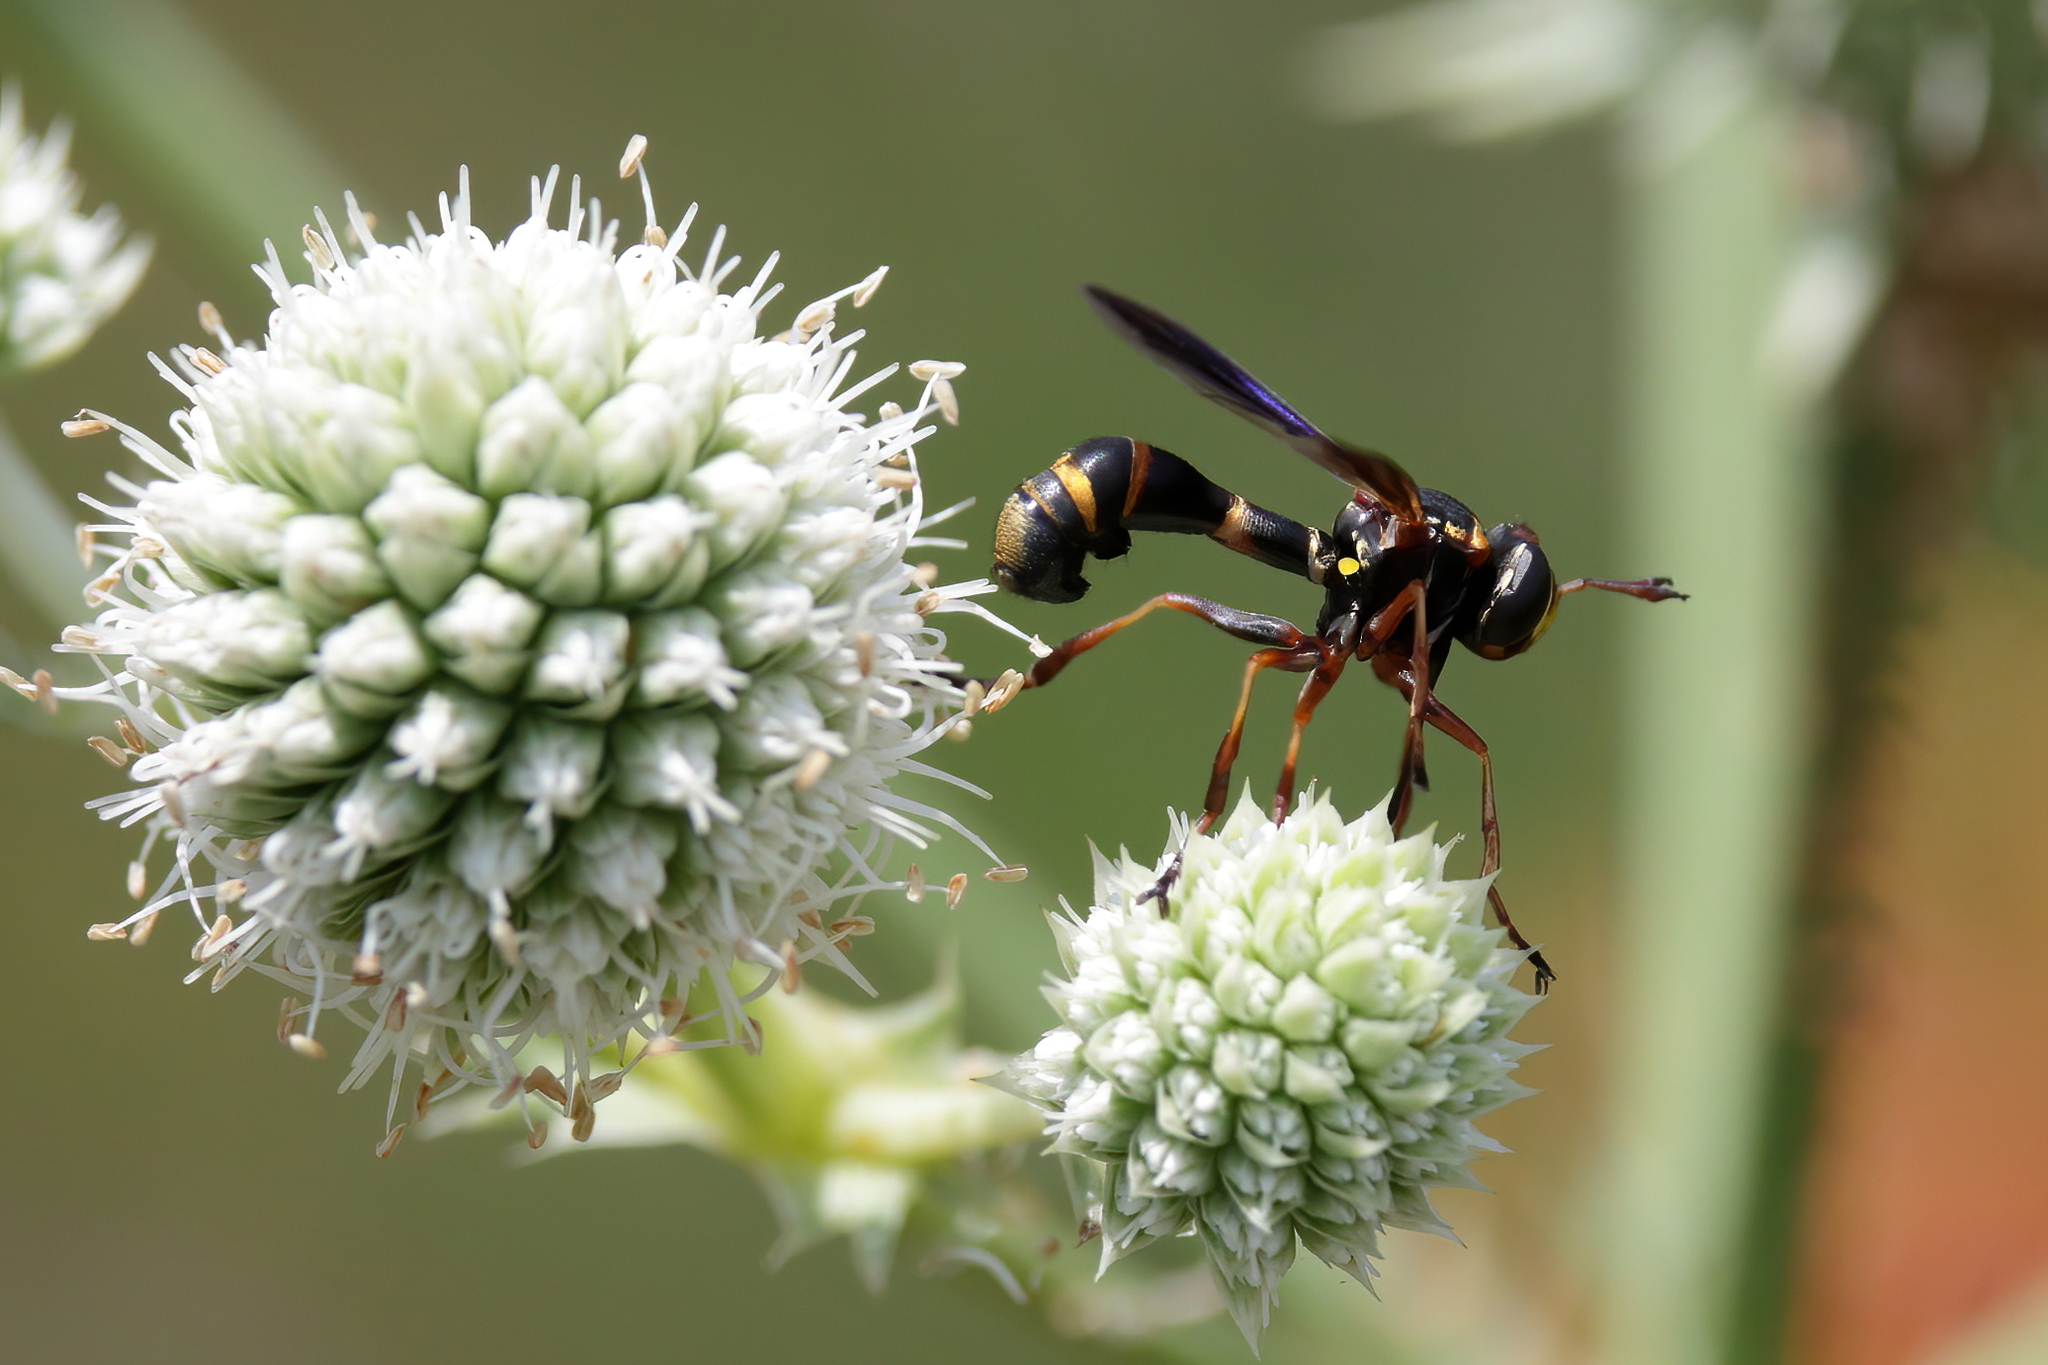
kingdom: Animalia
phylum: Arthropoda
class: Insecta
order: Diptera
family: Conopidae
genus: Physocephala
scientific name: Physocephala sagittaria
